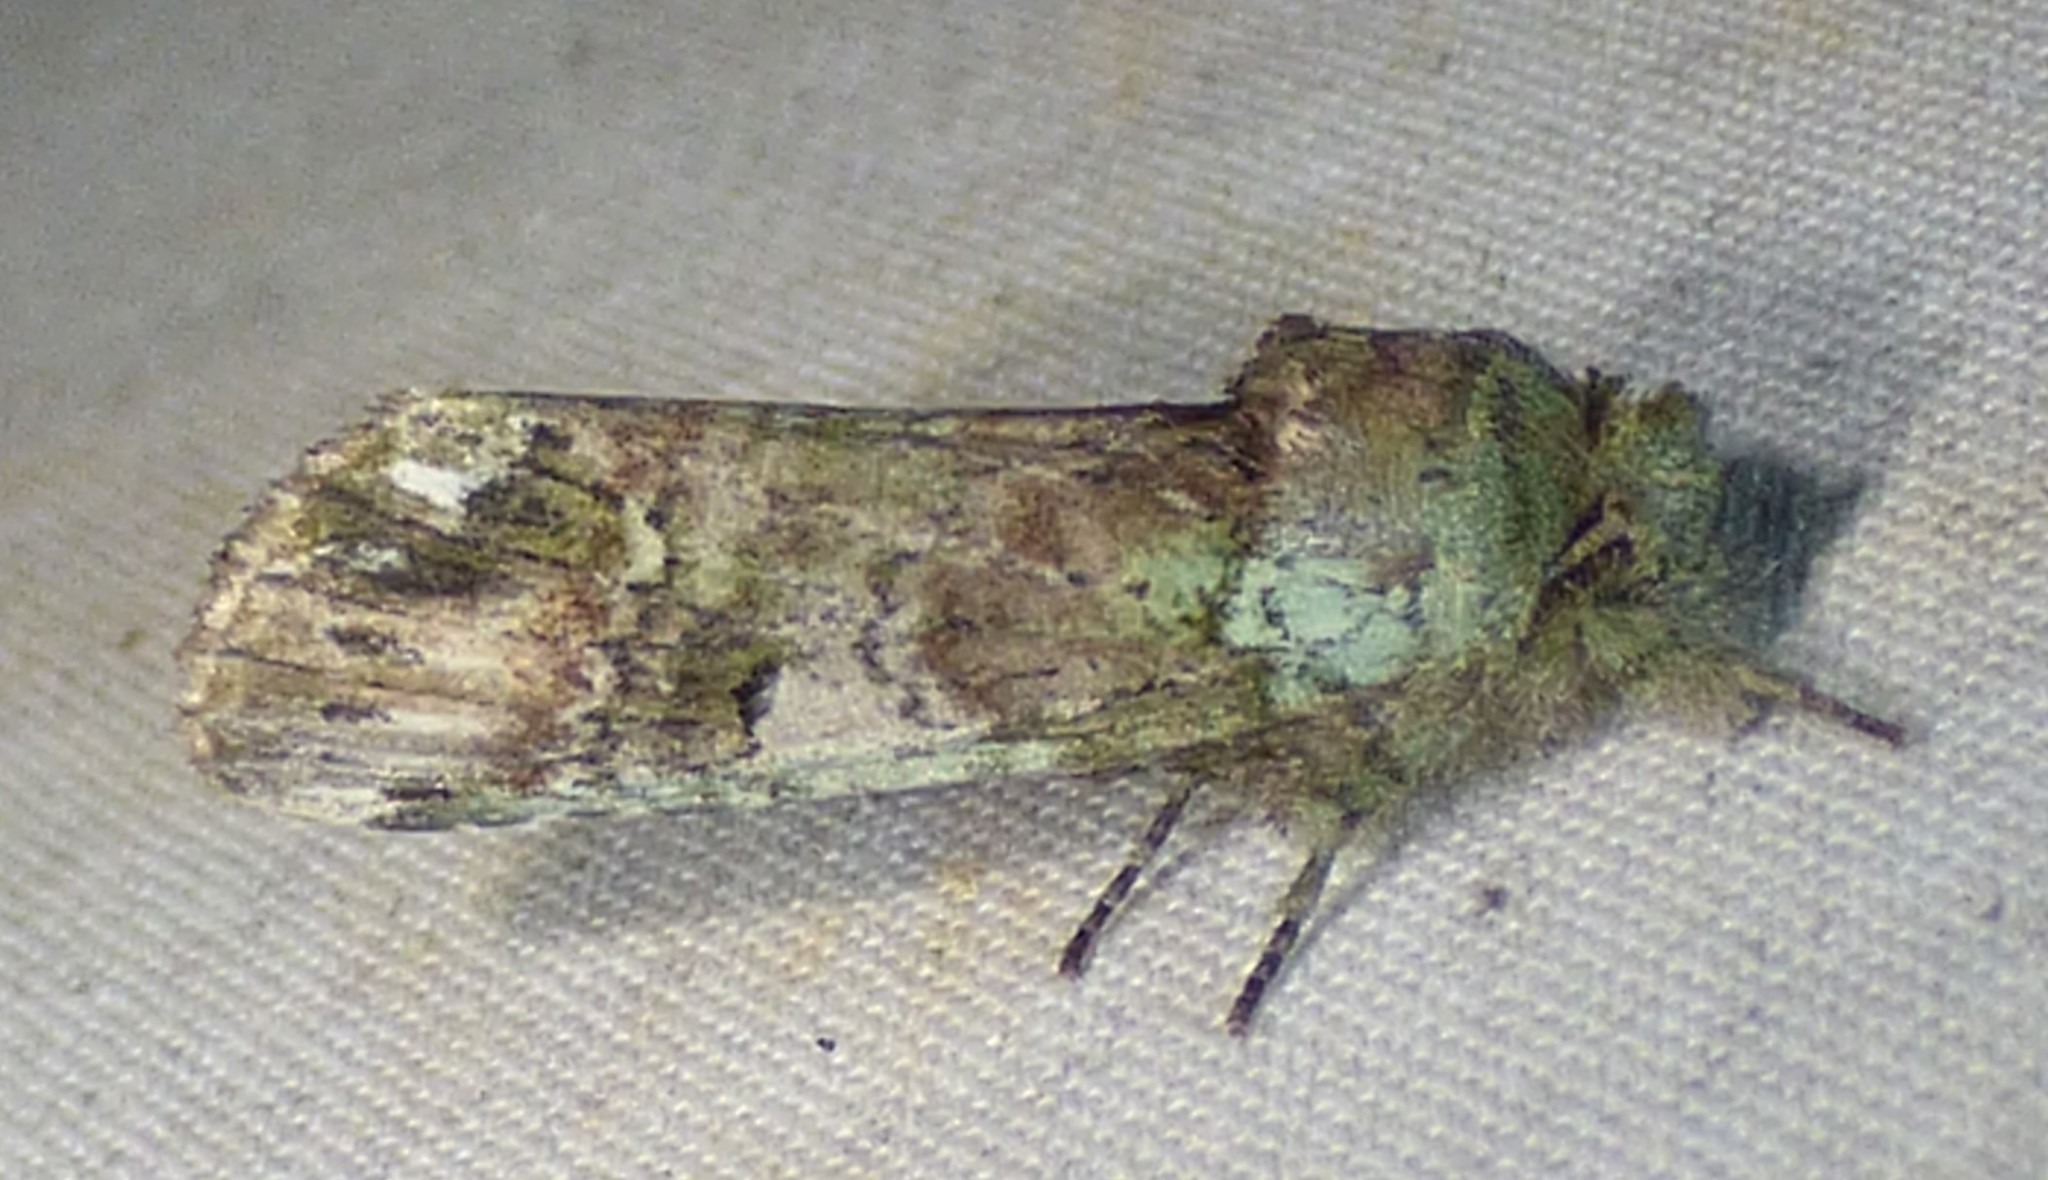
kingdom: Animalia
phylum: Arthropoda
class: Insecta
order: Lepidoptera
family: Notodontidae
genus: Schizura
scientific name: Schizura
